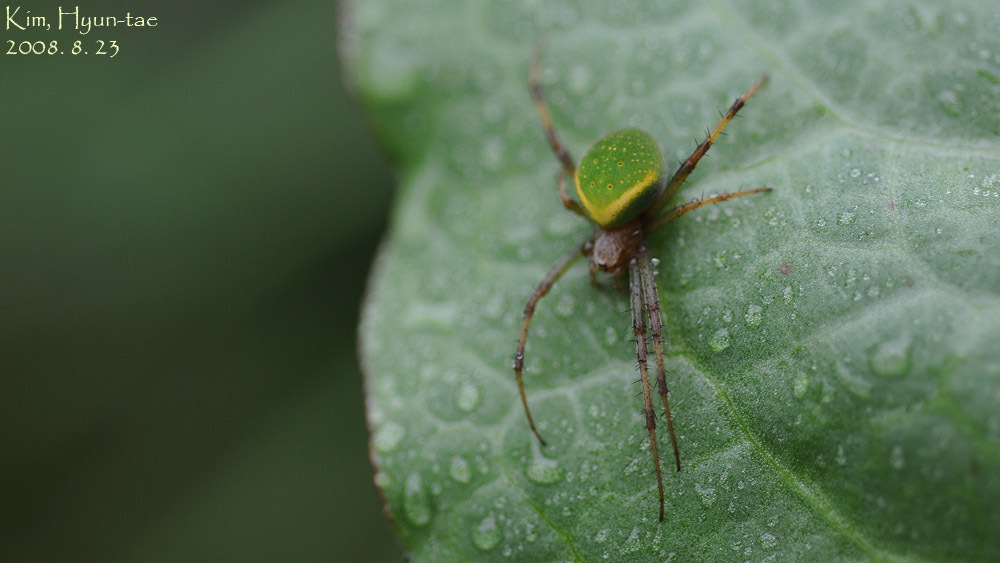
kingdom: Animalia
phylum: Arthropoda
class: Arachnida
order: Araneae
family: Araneidae
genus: Neoscona
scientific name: Neoscona scylloides
